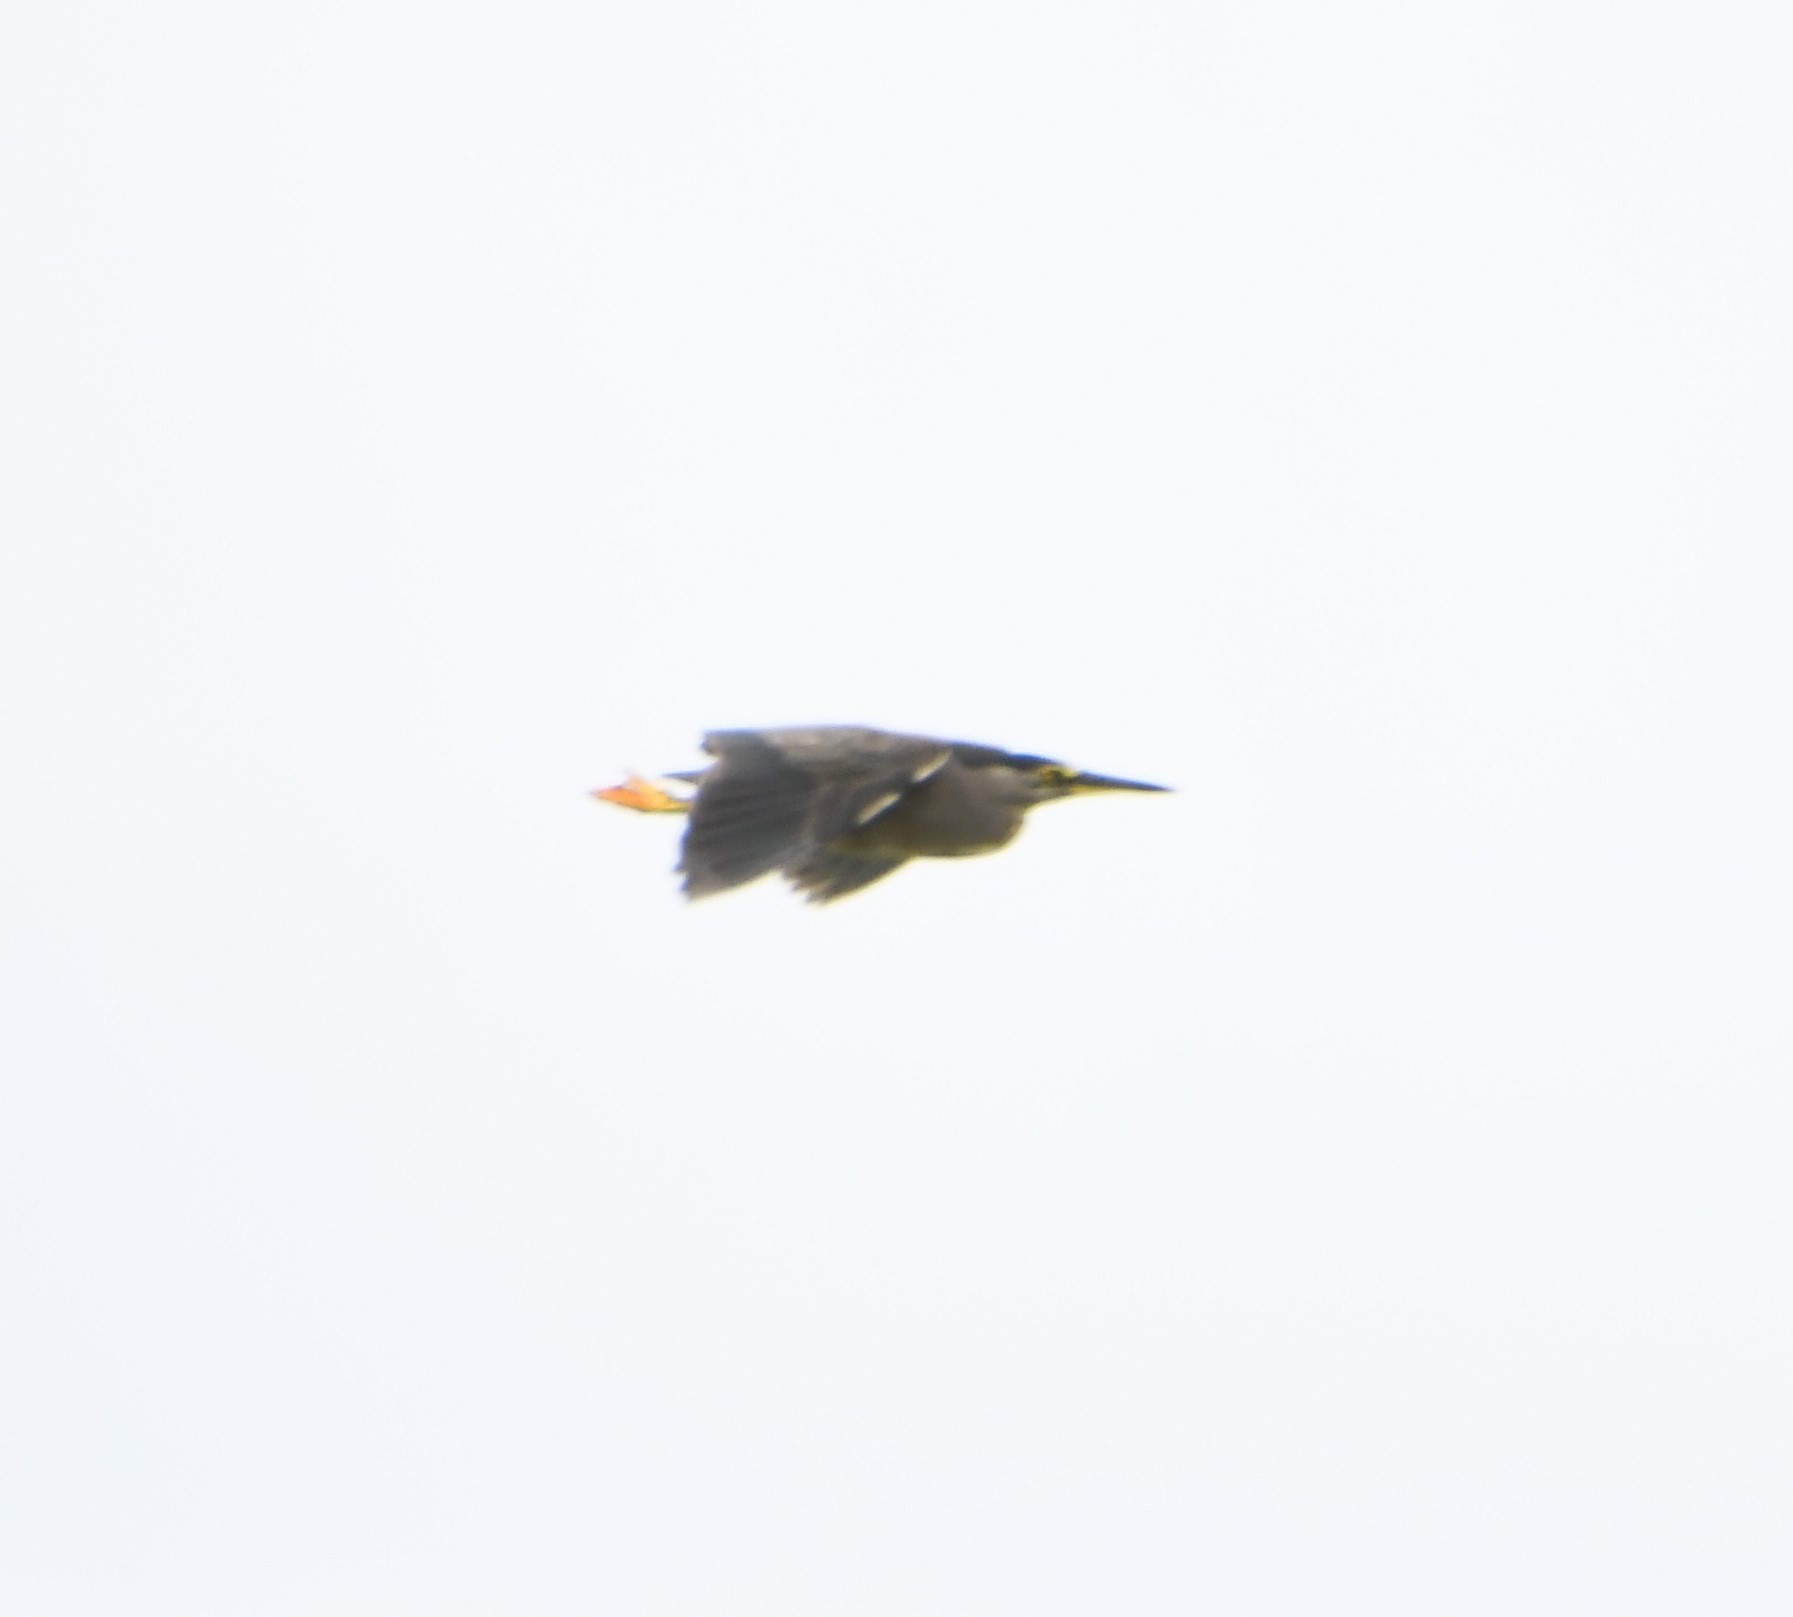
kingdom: Animalia
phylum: Chordata
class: Aves
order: Pelecaniformes
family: Ardeidae
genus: Butorides
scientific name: Butorides striata
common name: Striated heron
